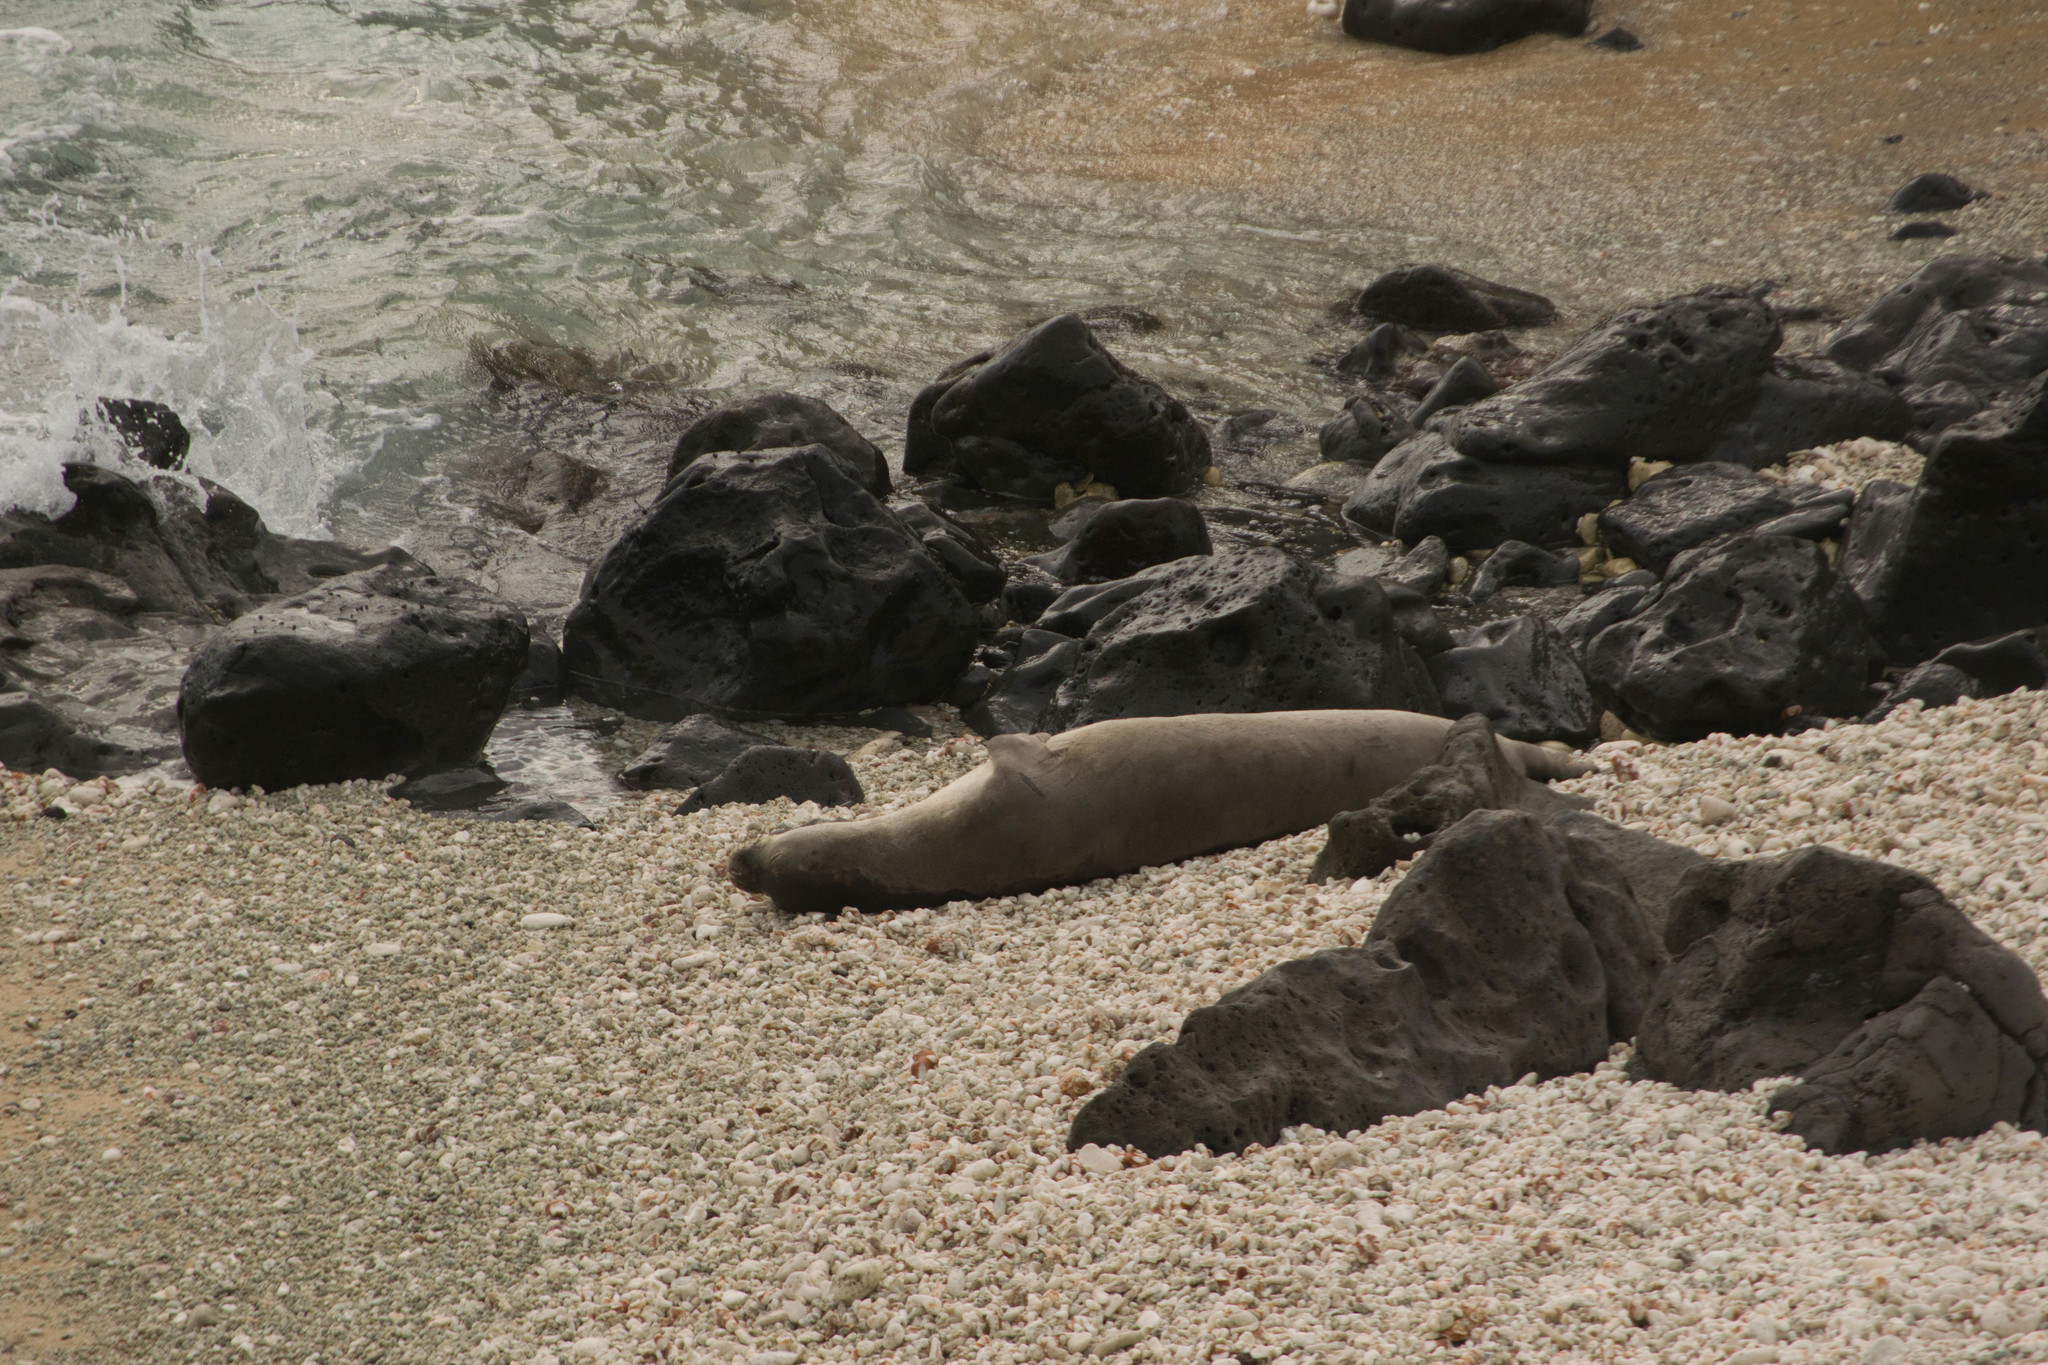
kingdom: Animalia
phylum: Chordata
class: Mammalia
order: Carnivora
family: Phocidae
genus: Neomonachus
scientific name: Neomonachus schauinslandi
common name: Hawaiian monk seal
